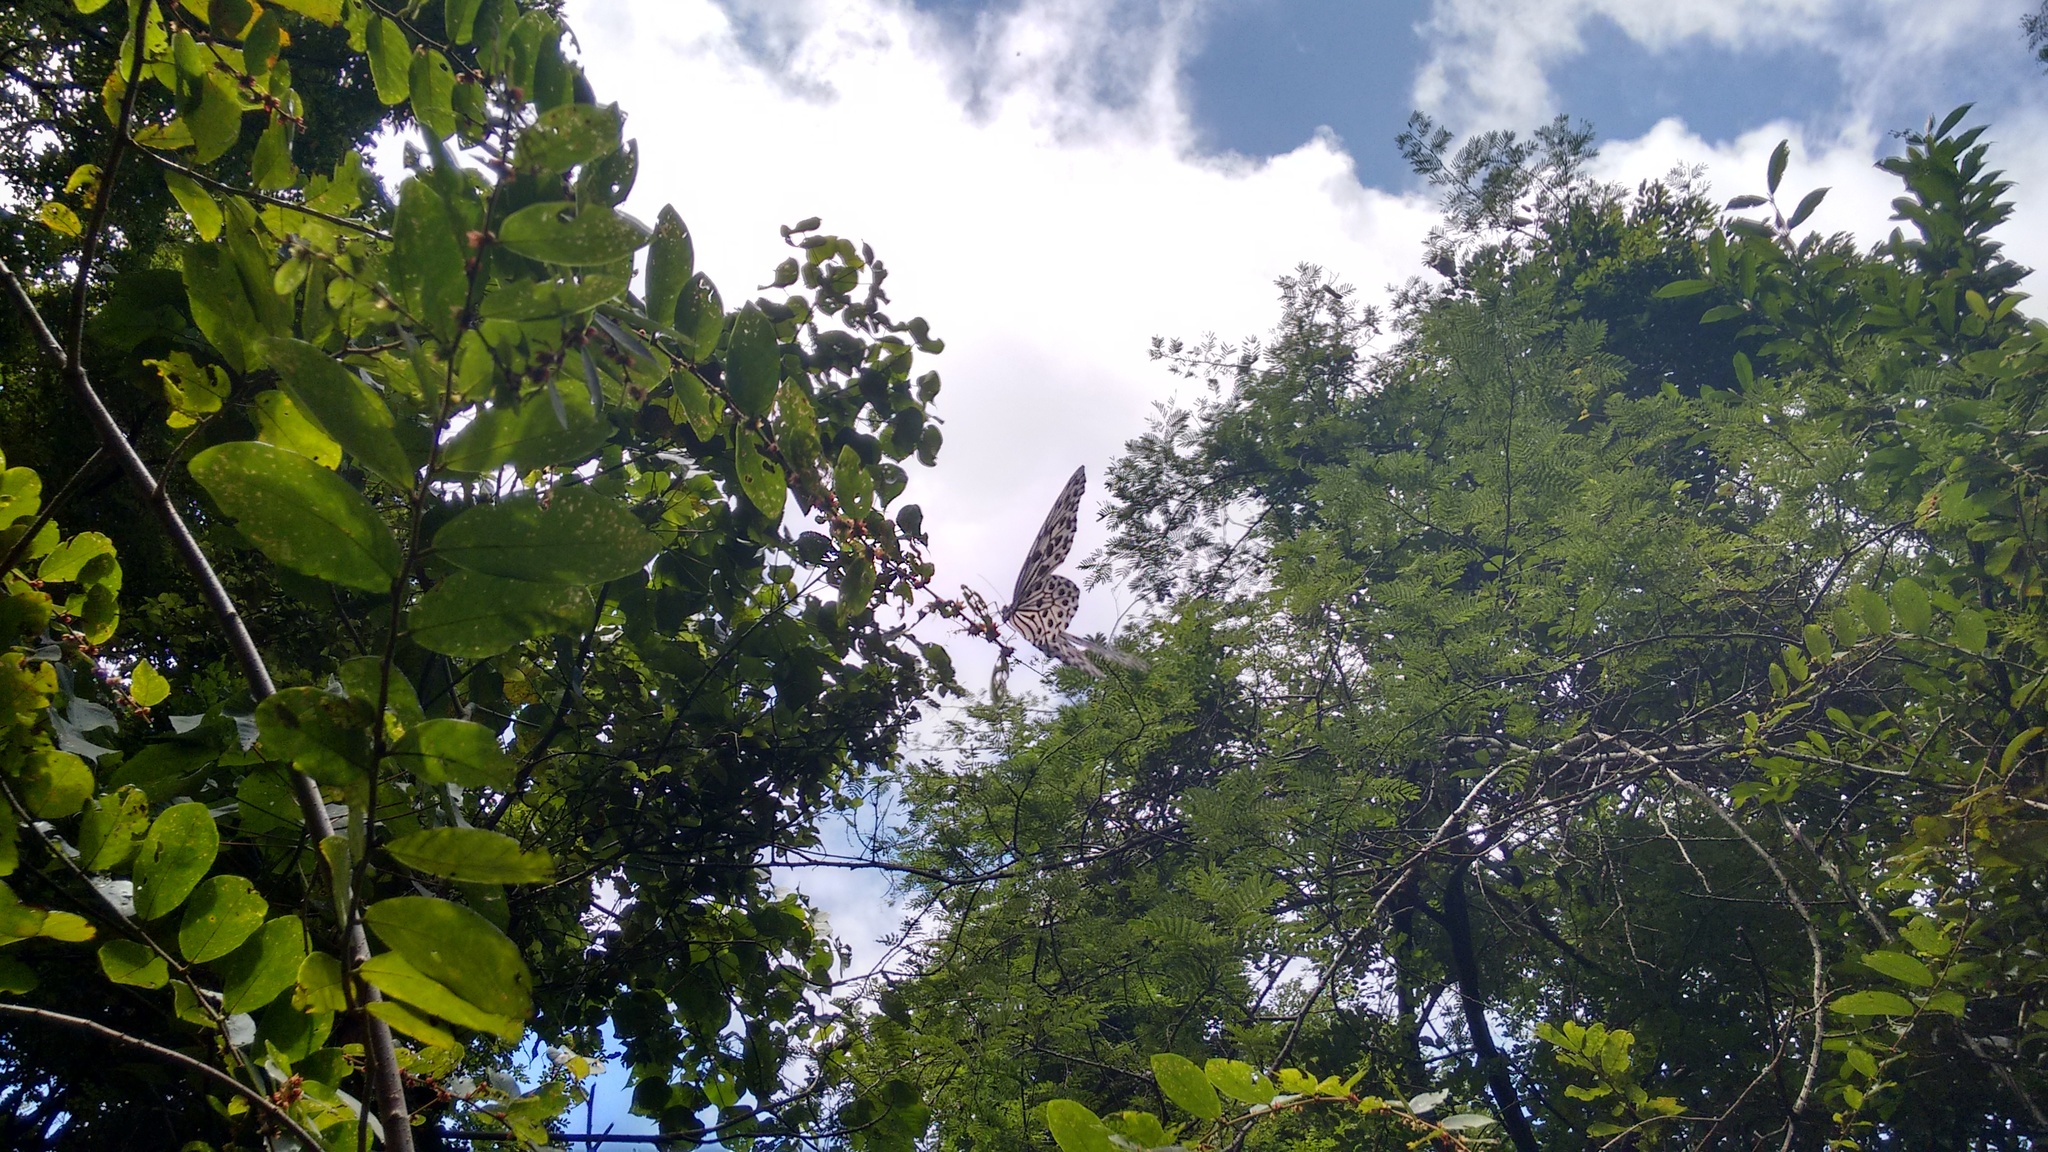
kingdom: Animalia
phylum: Arthropoda
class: Insecta
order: Lepidoptera
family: Nymphalidae
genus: Idea
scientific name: Idea malabarica
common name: Malabar tree-nymph
